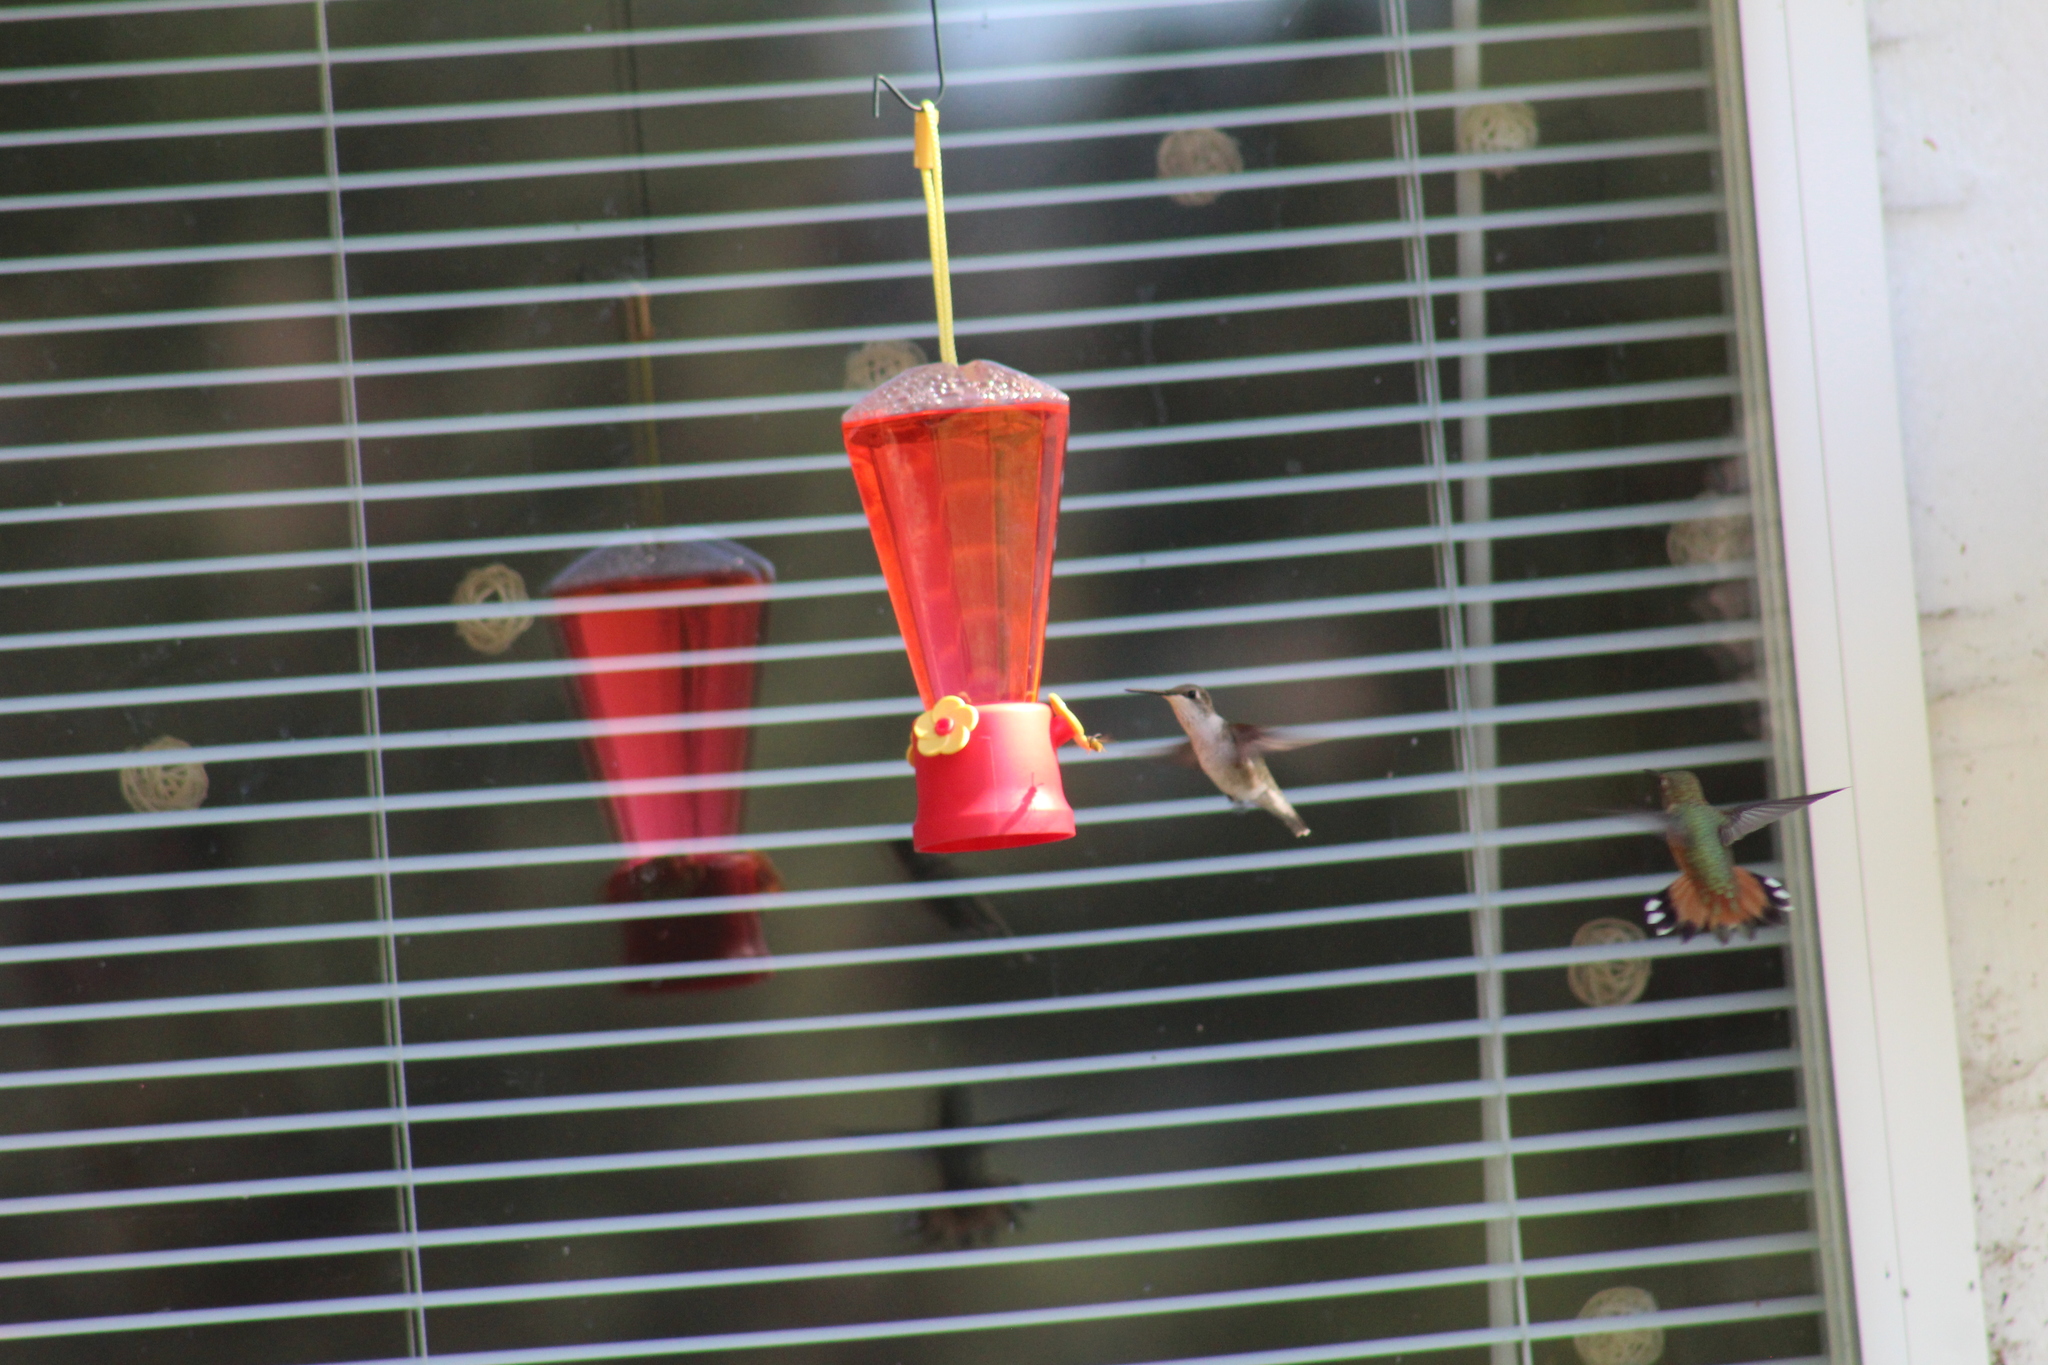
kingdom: Animalia
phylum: Chordata
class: Aves
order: Apodiformes
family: Trochilidae
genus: Archilochus
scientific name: Archilochus alexandri
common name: Black-chinned hummingbird
